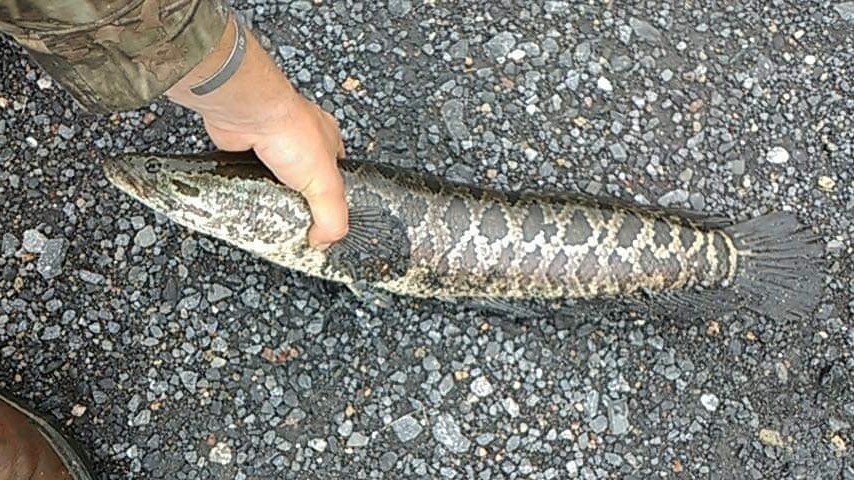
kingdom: Animalia
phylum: Chordata
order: Perciformes
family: Channidae
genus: Channa
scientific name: Channa argus
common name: Northern snakehead
